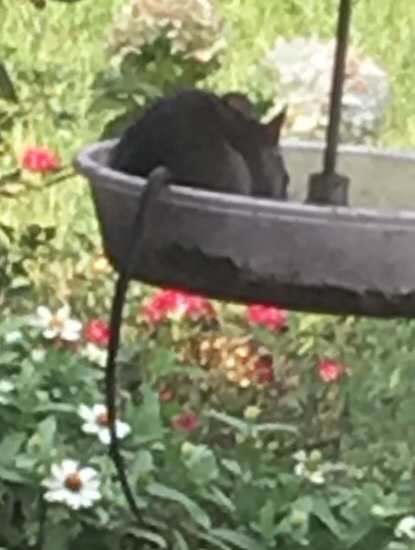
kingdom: Animalia
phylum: Chordata
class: Mammalia
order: Rodentia
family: Muridae
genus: Rattus
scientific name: Rattus rattus
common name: Black rat
